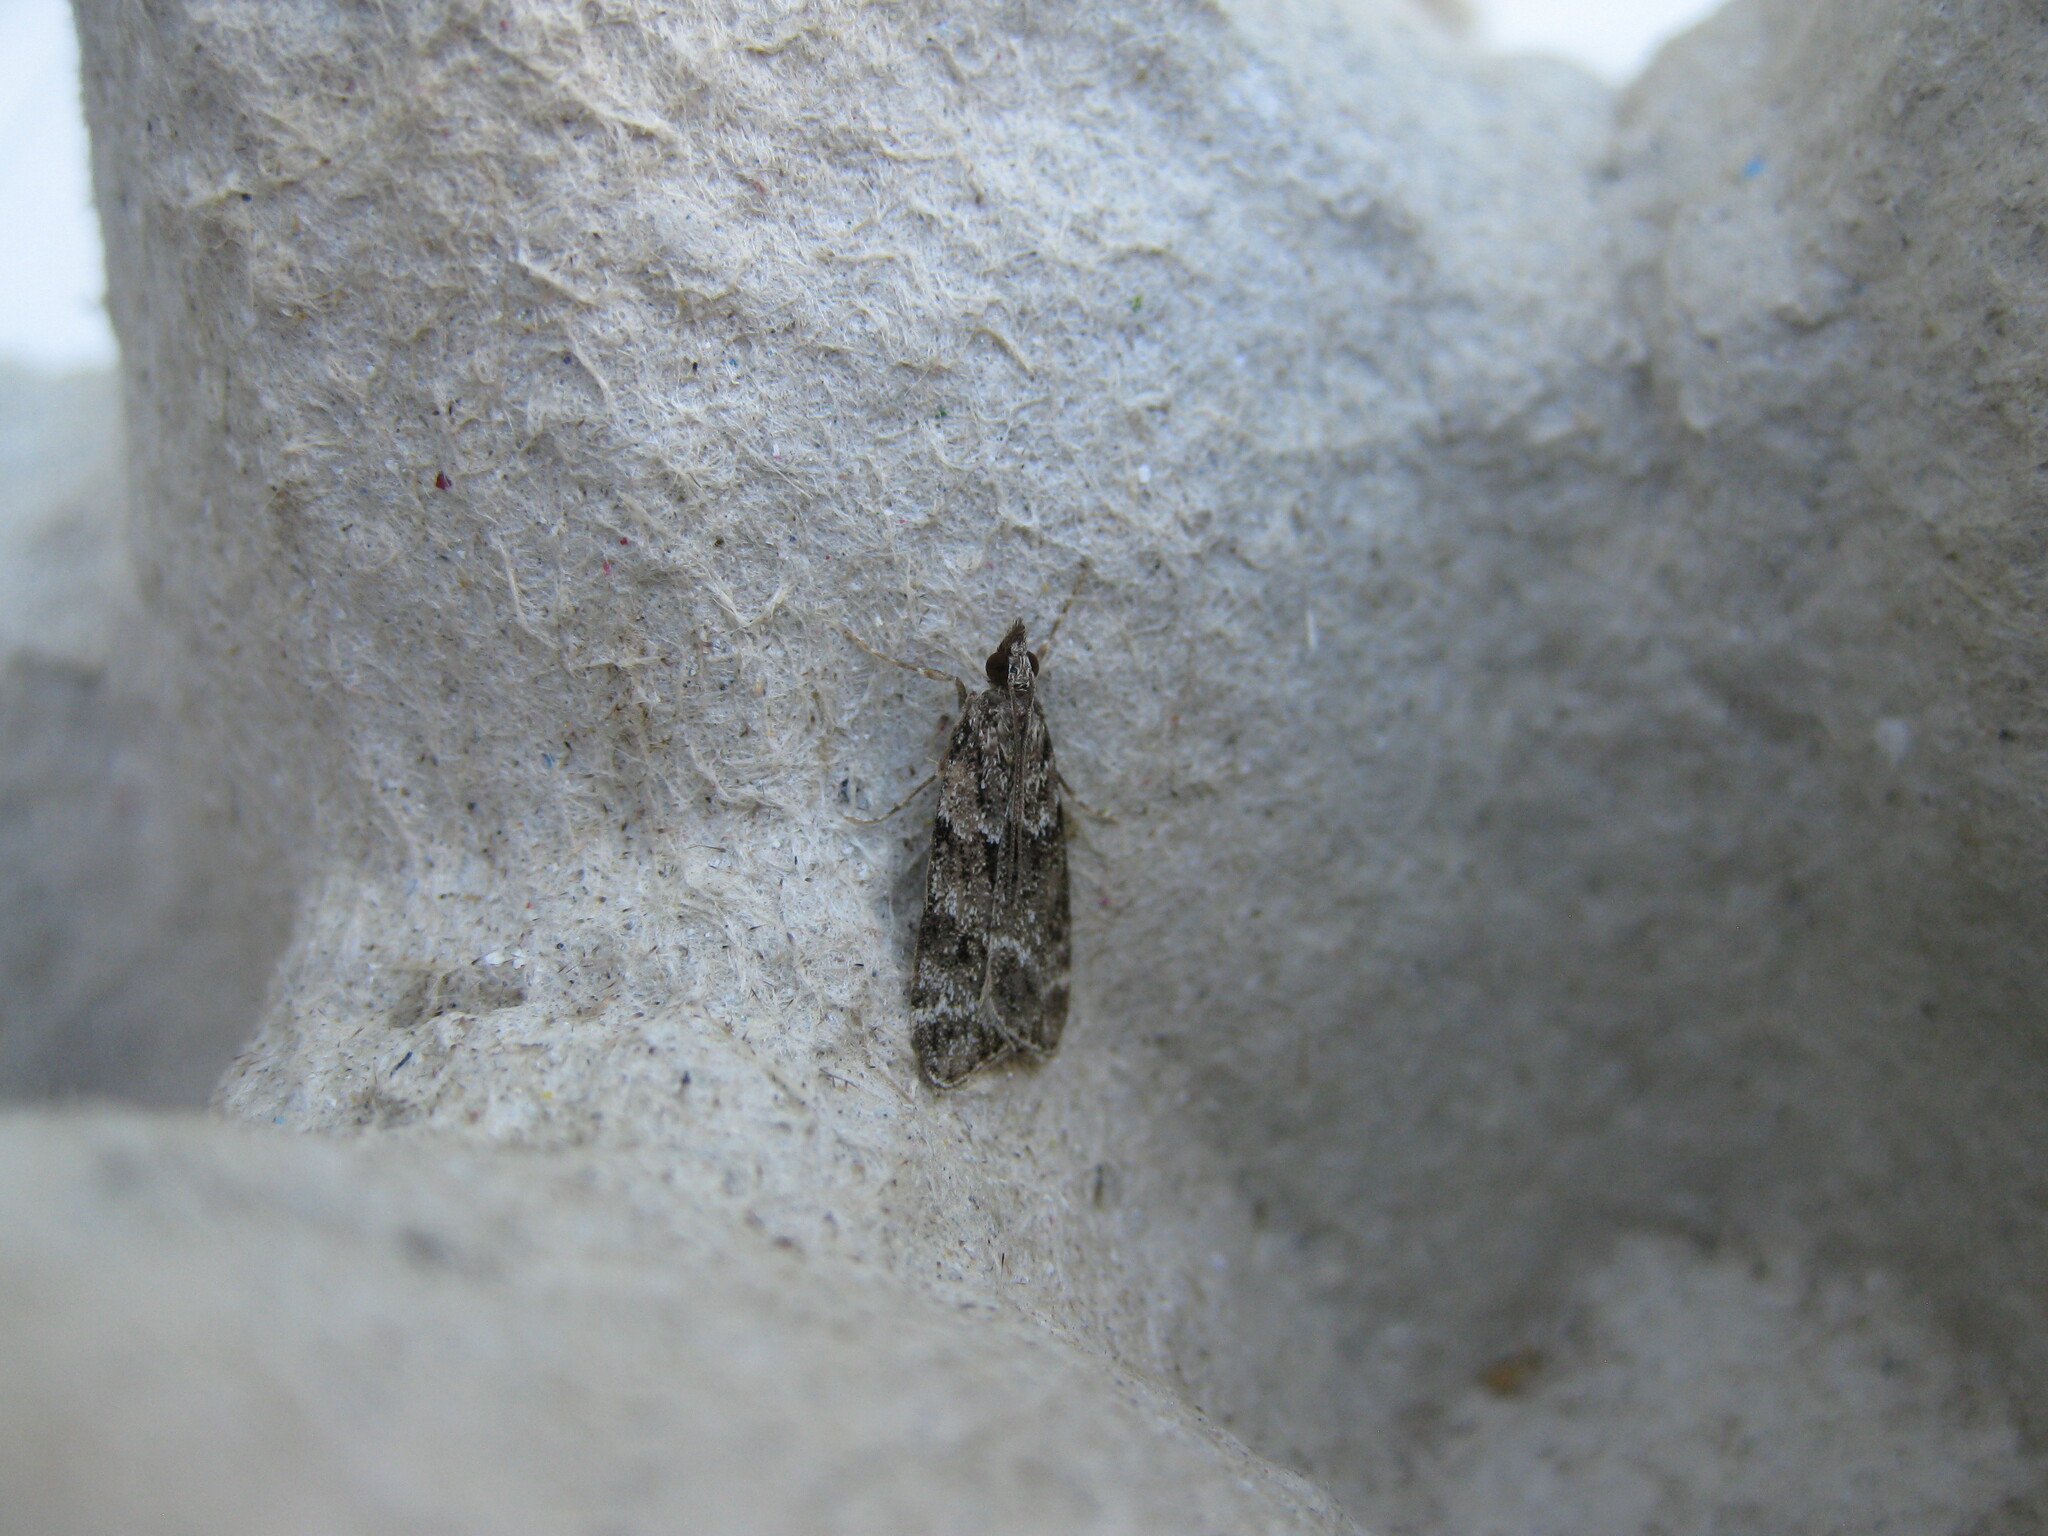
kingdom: Animalia
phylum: Arthropoda
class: Insecta
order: Lepidoptera
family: Crambidae
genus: Eudonia
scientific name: Eudonia mercurella
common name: Small grey
